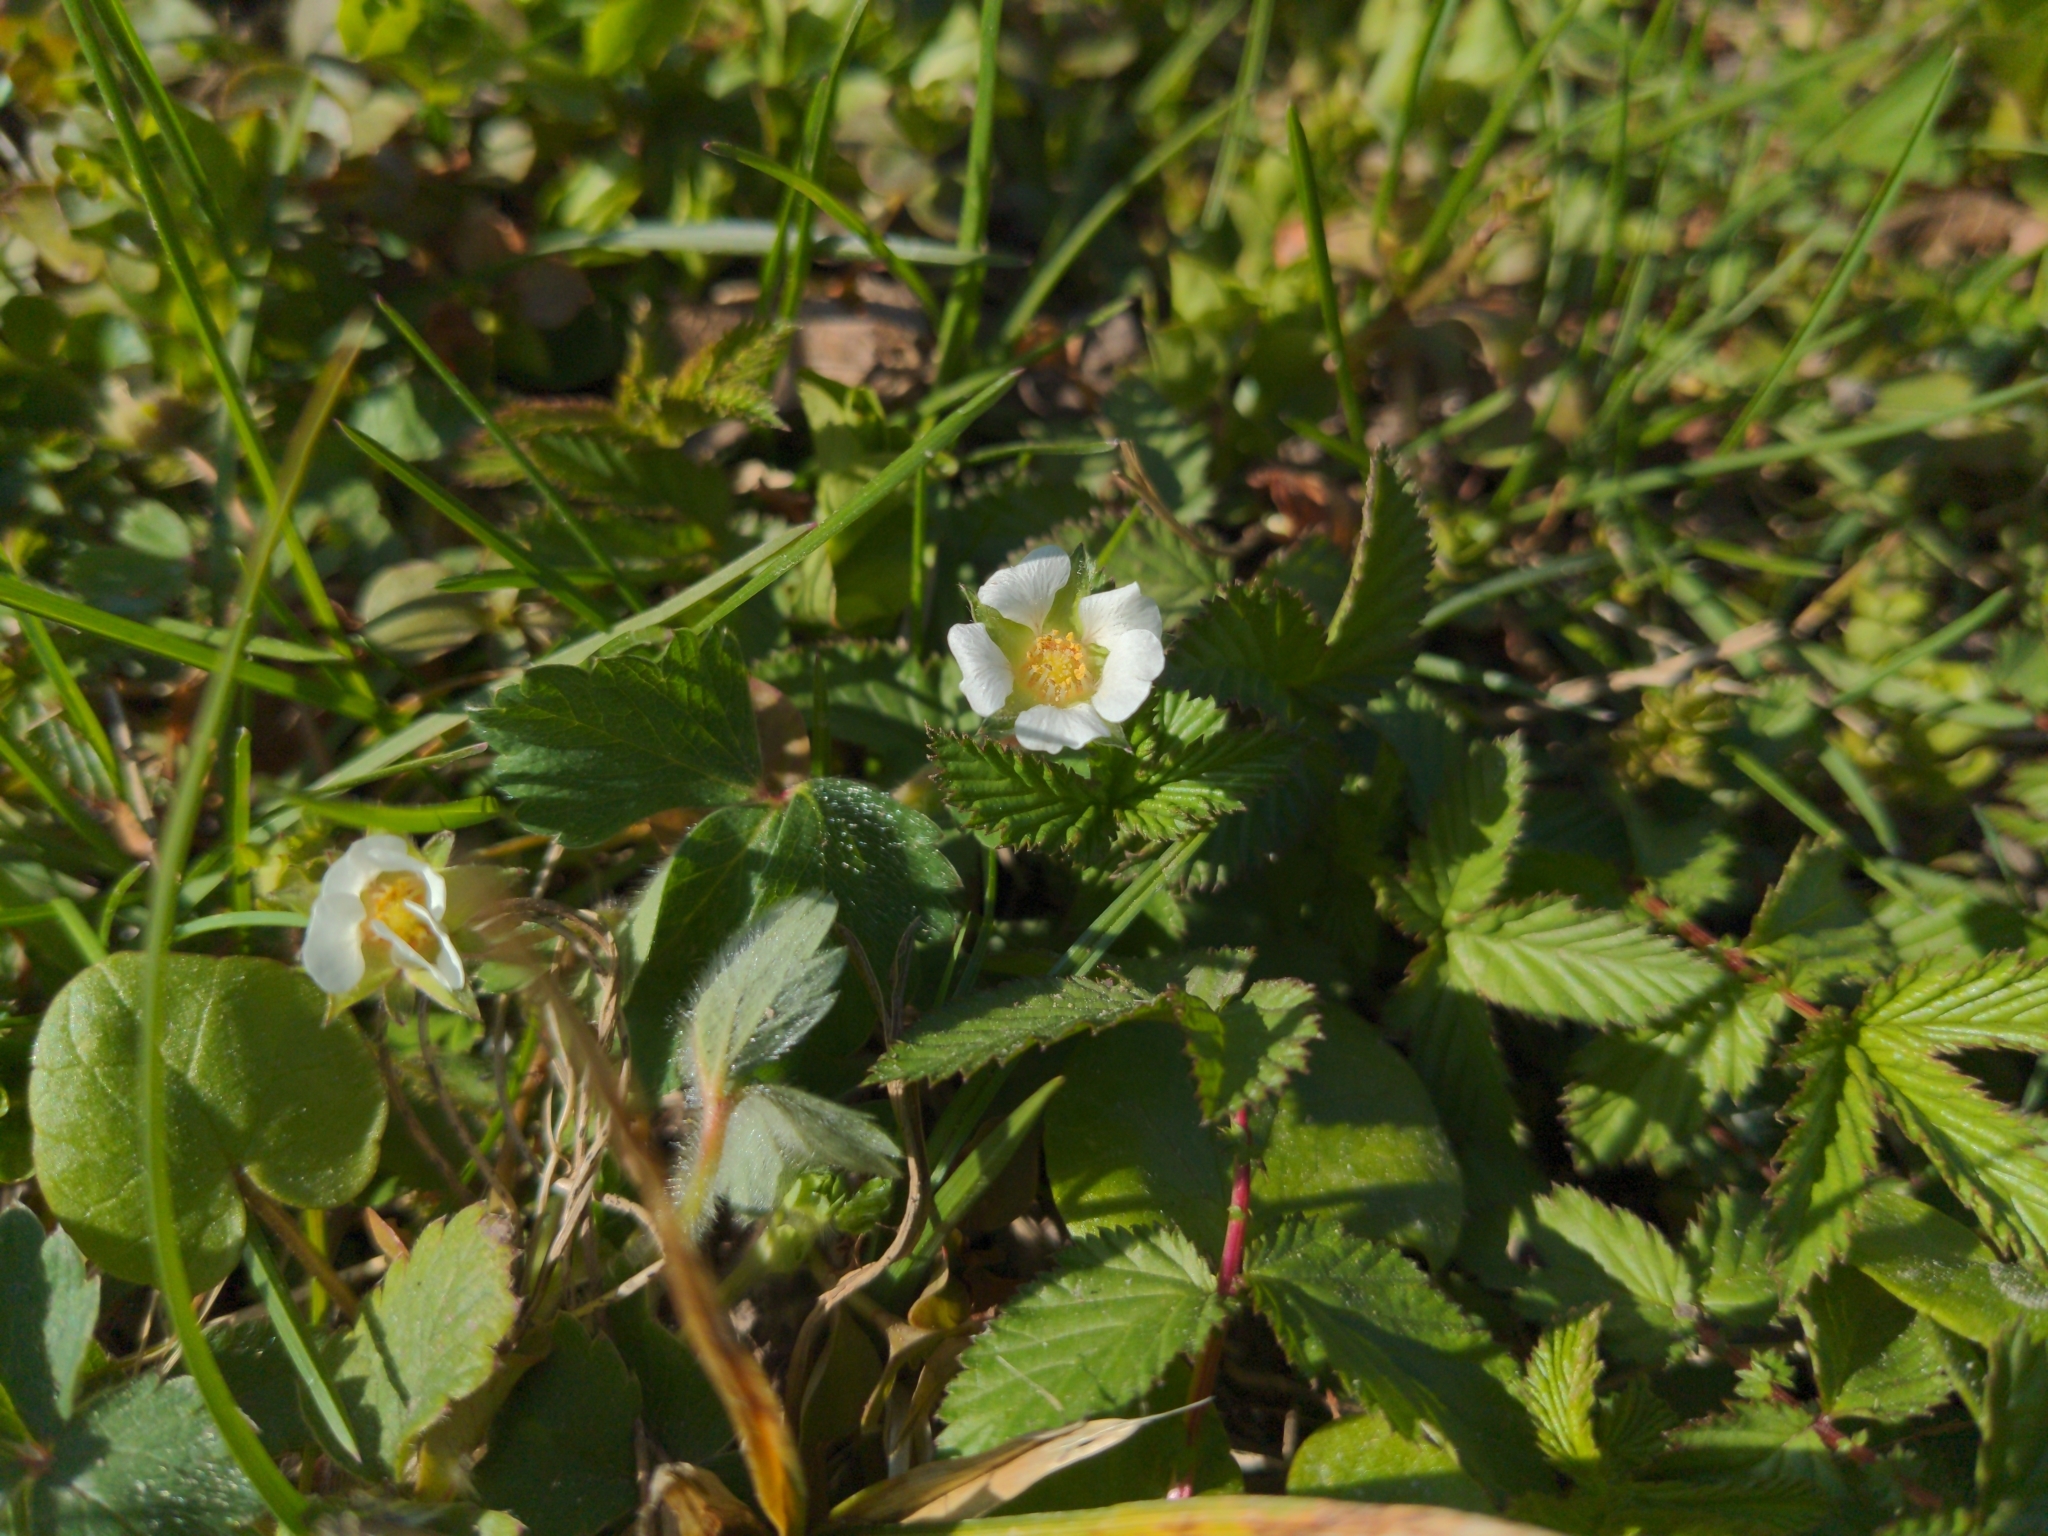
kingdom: Plantae
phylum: Tracheophyta
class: Magnoliopsida
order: Rosales
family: Rosaceae
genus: Potentilla
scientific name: Potentilla sterilis
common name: Barren strawberry
